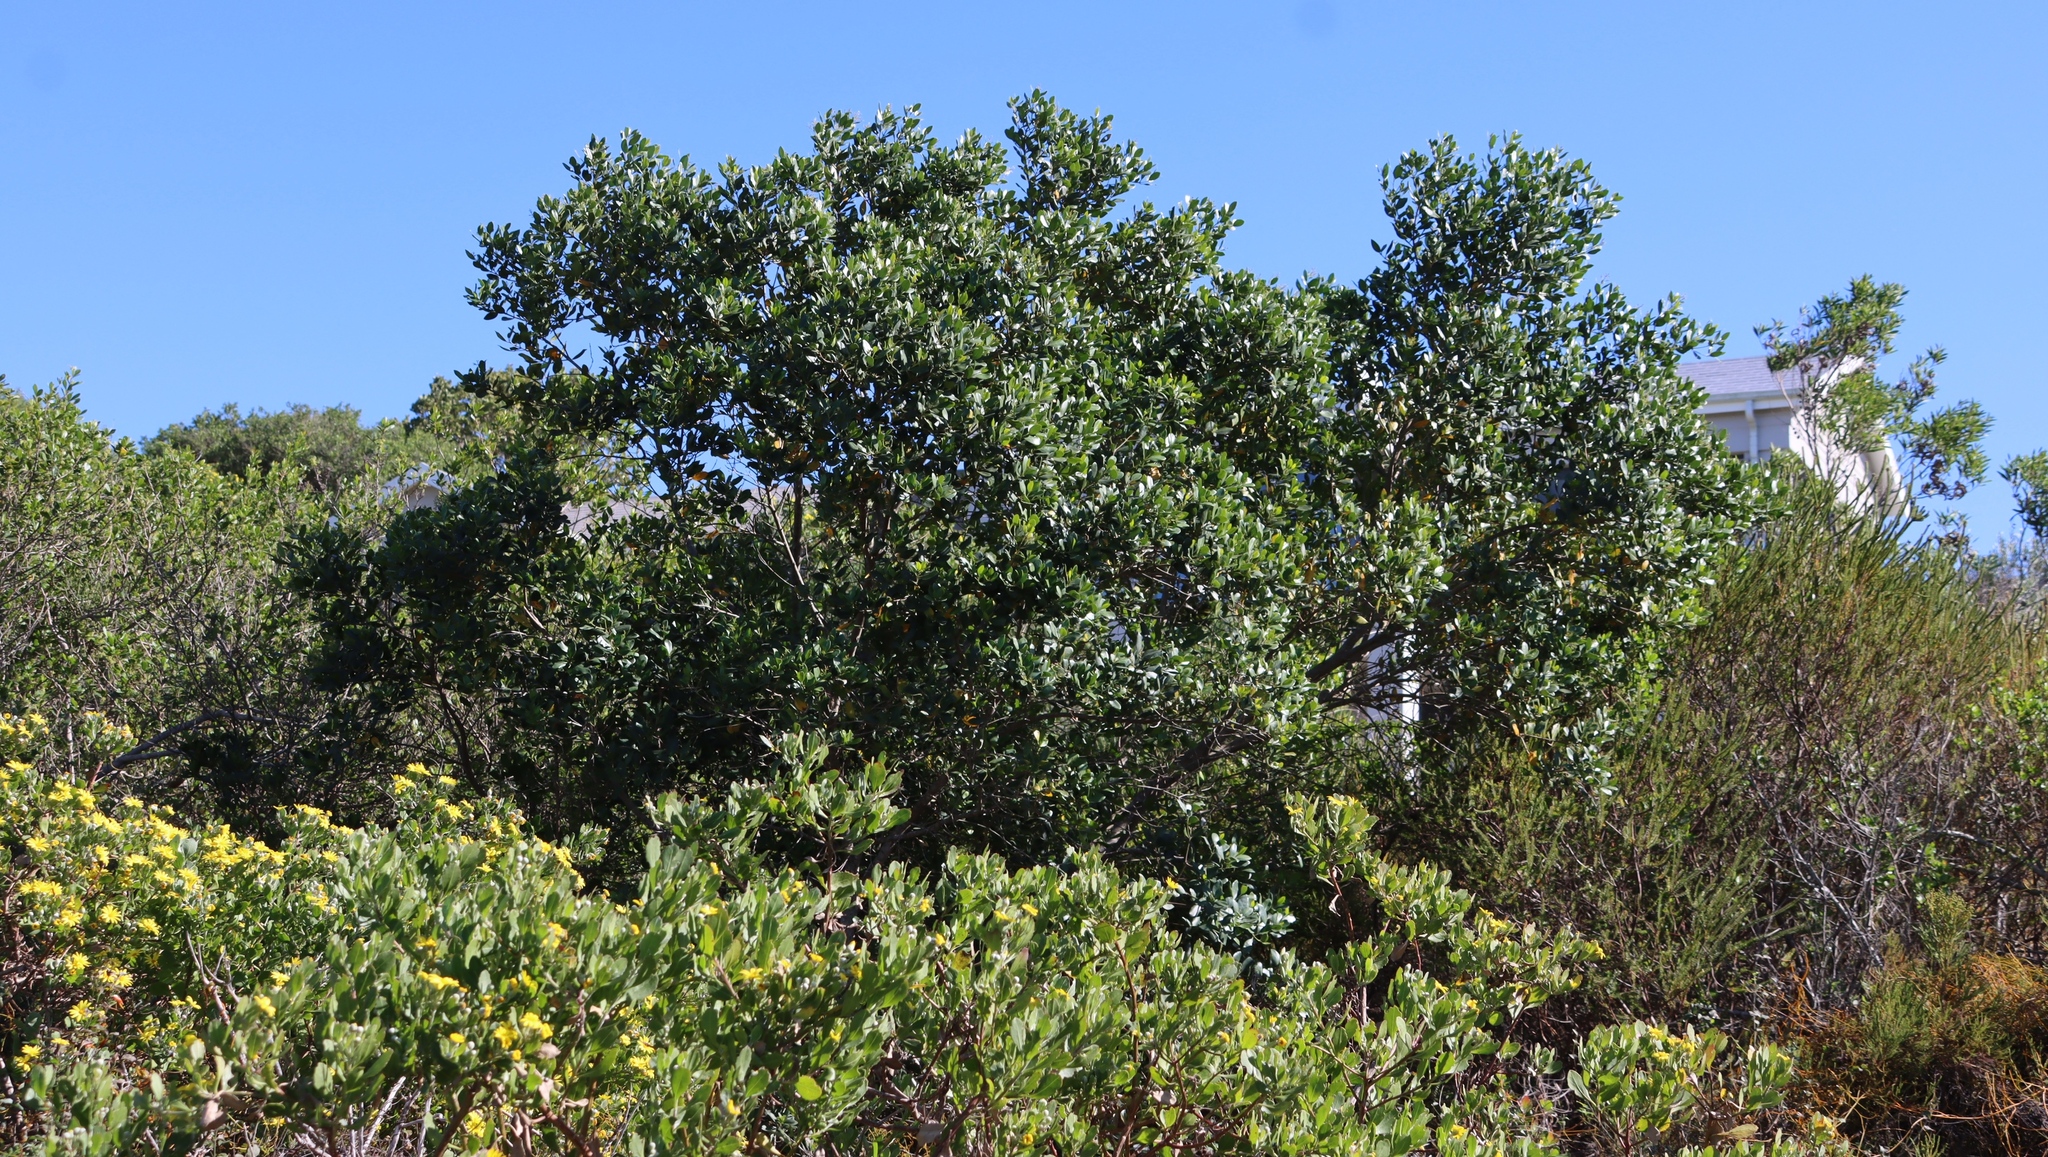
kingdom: Plantae
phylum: Tracheophyta
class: Magnoliopsida
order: Lamiales
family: Oleaceae
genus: Olea
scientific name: Olea capensis
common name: Black ironwood
